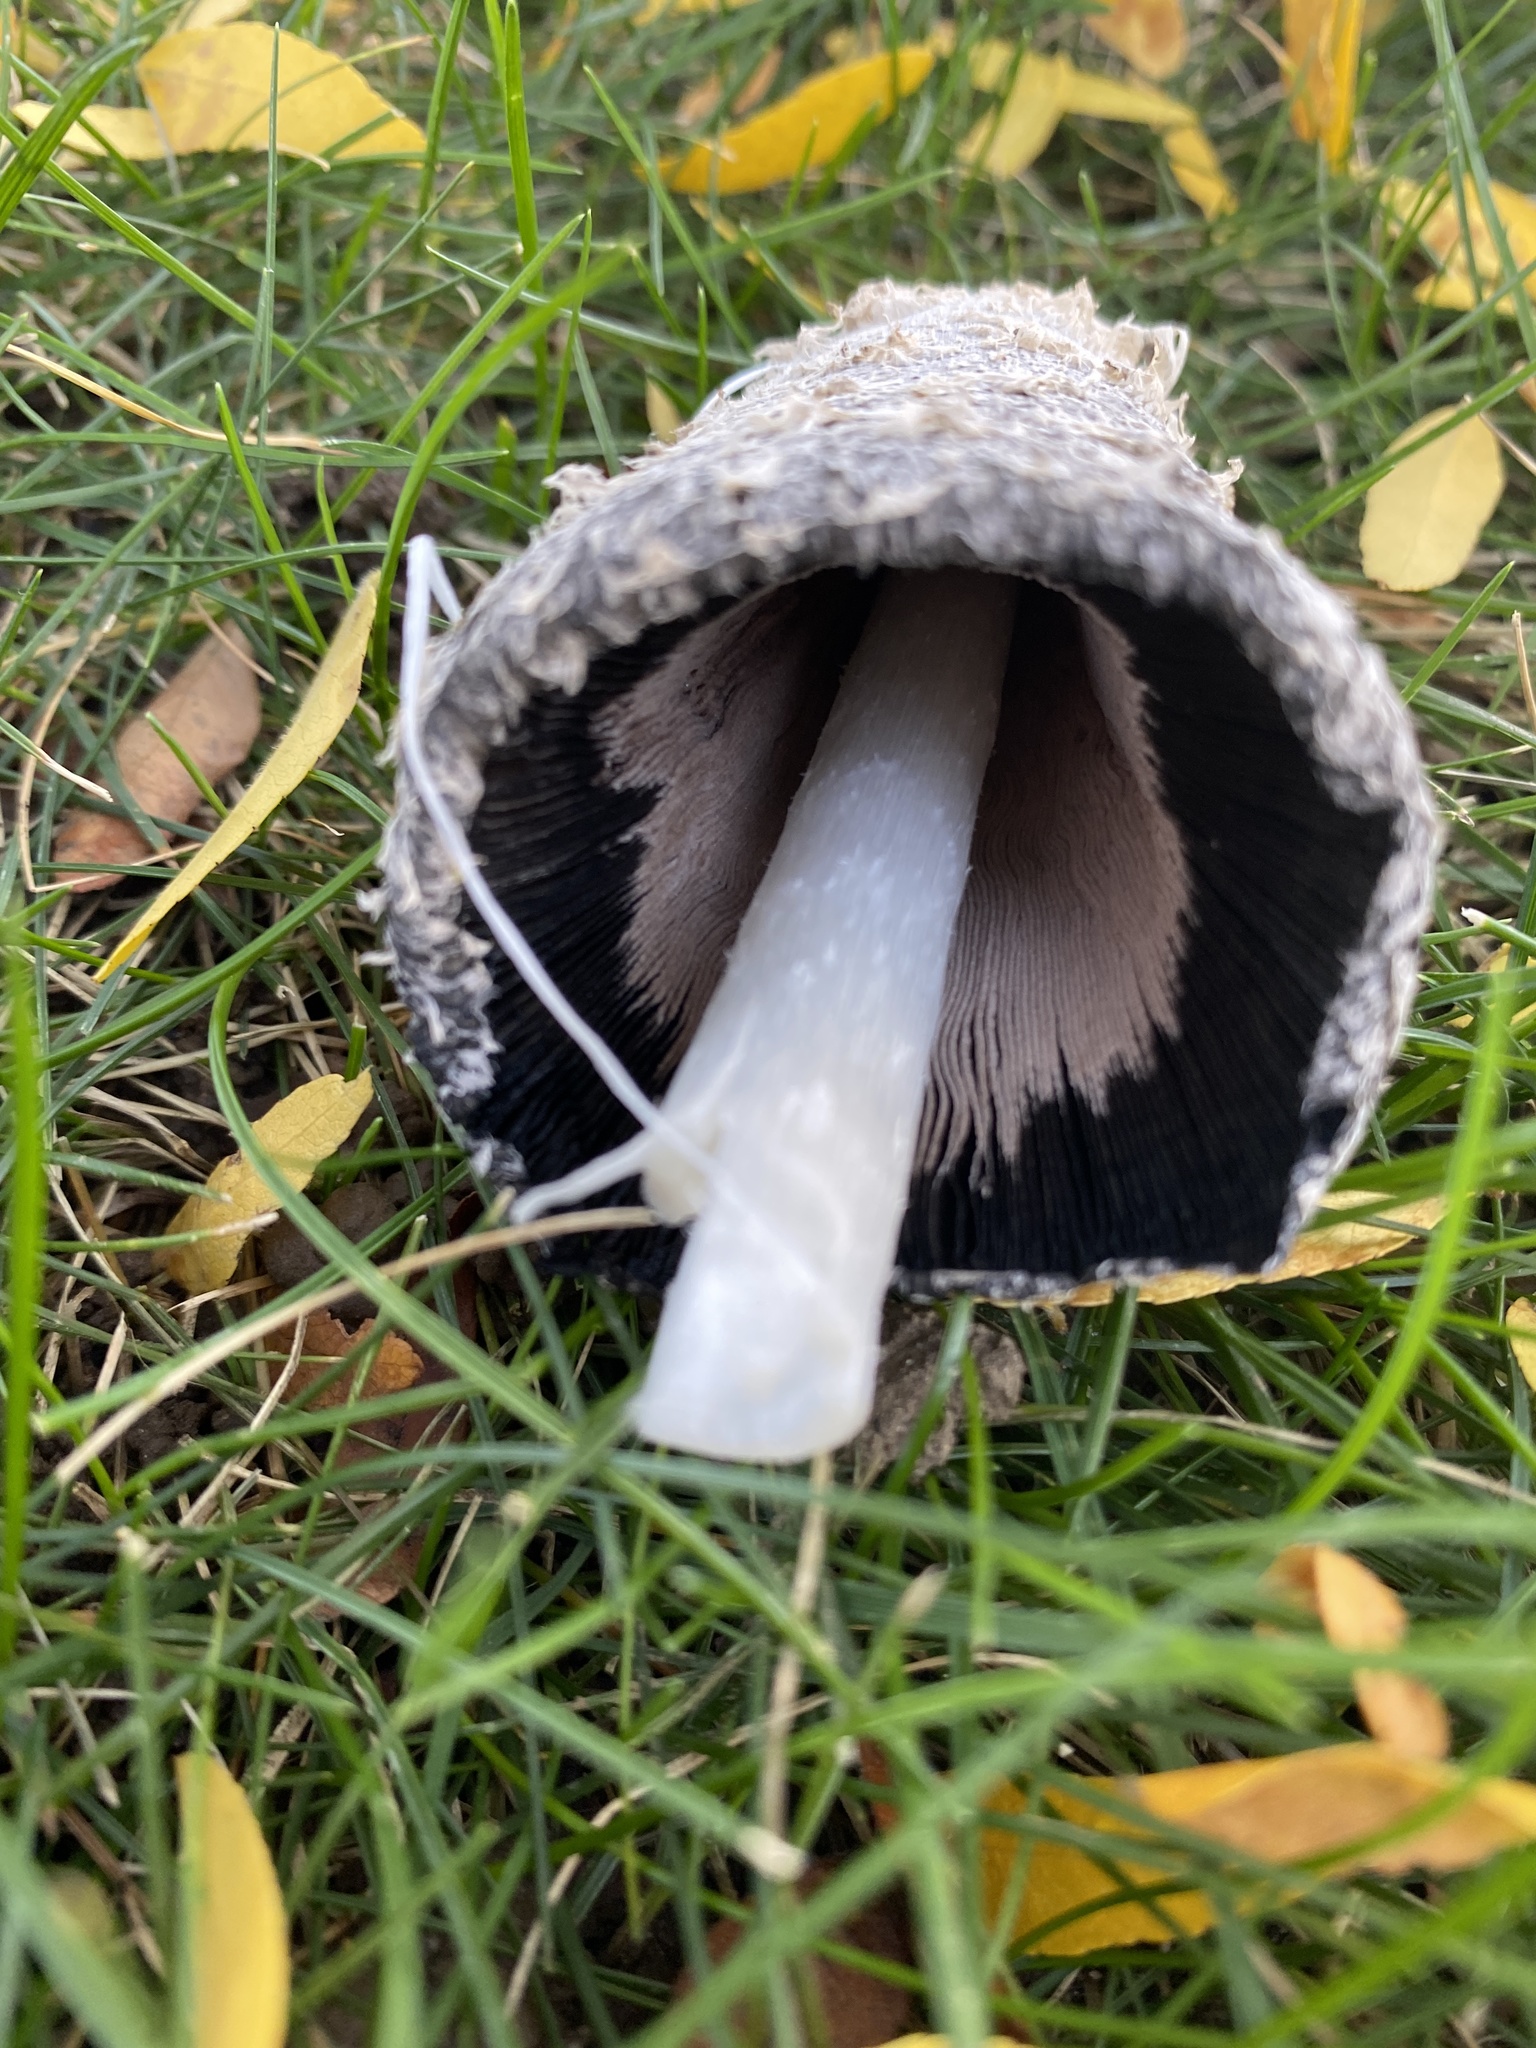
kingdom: Fungi
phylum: Basidiomycota
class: Agaricomycetes
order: Agaricales
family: Agaricaceae
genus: Coprinus
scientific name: Coprinus comatus
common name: Lawyer's wig
